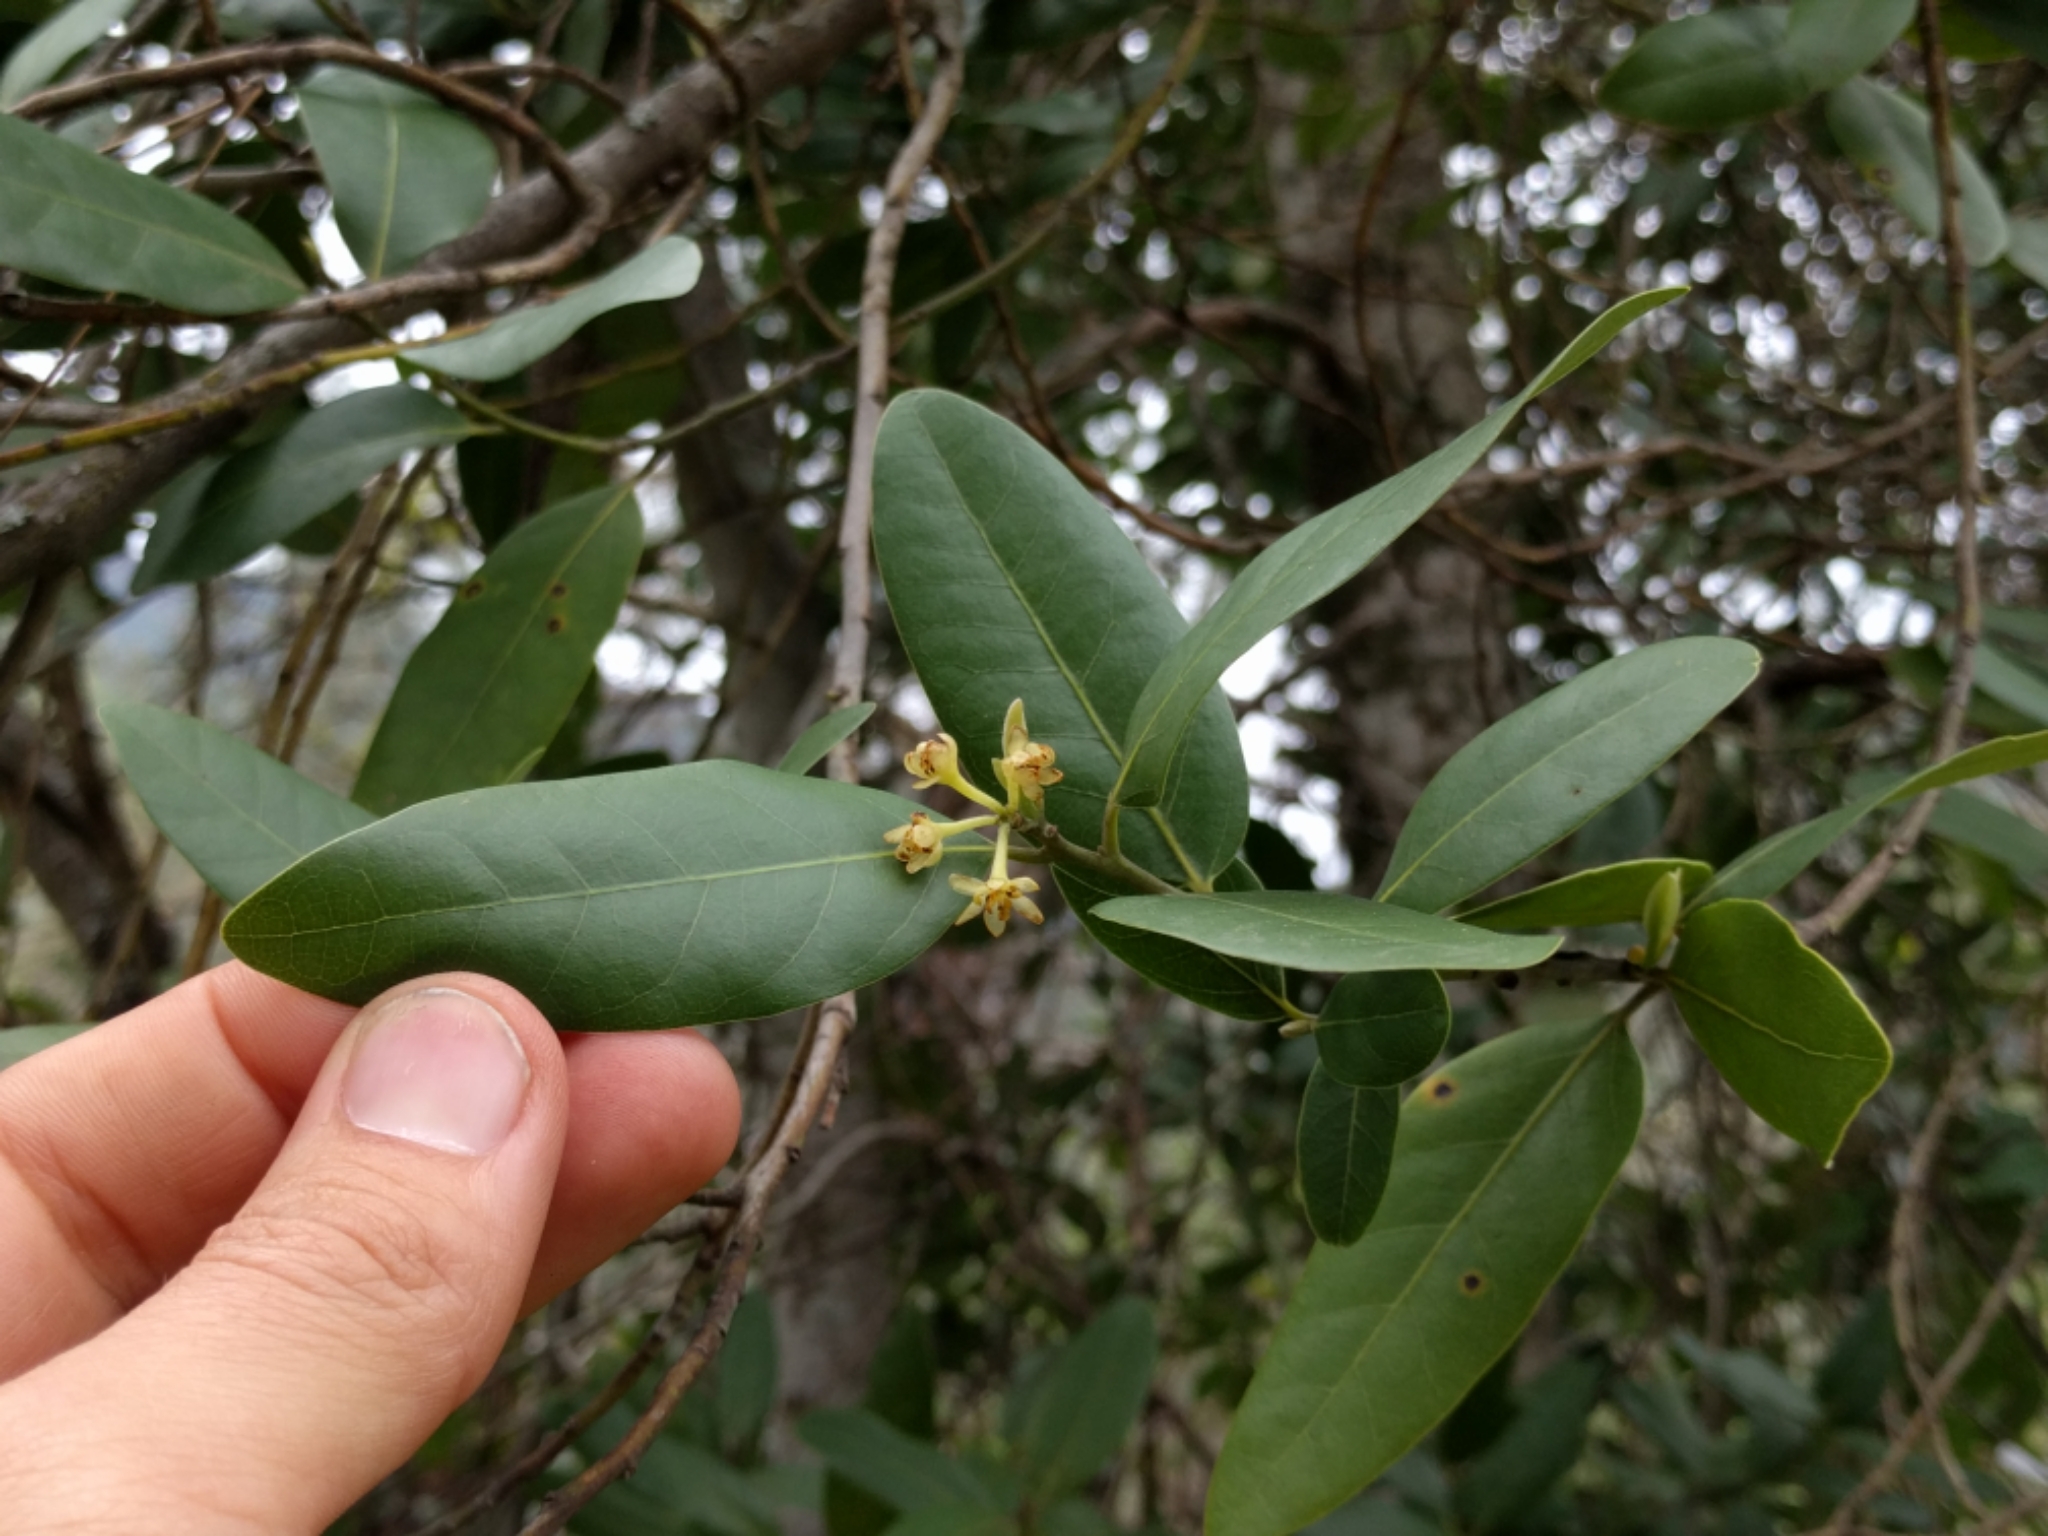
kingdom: Plantae
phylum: Tracheophyta
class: Magnoliopsida
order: Laurales
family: Lauraceae
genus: Umbellularia
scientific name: Umbellularia californica
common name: California bay
